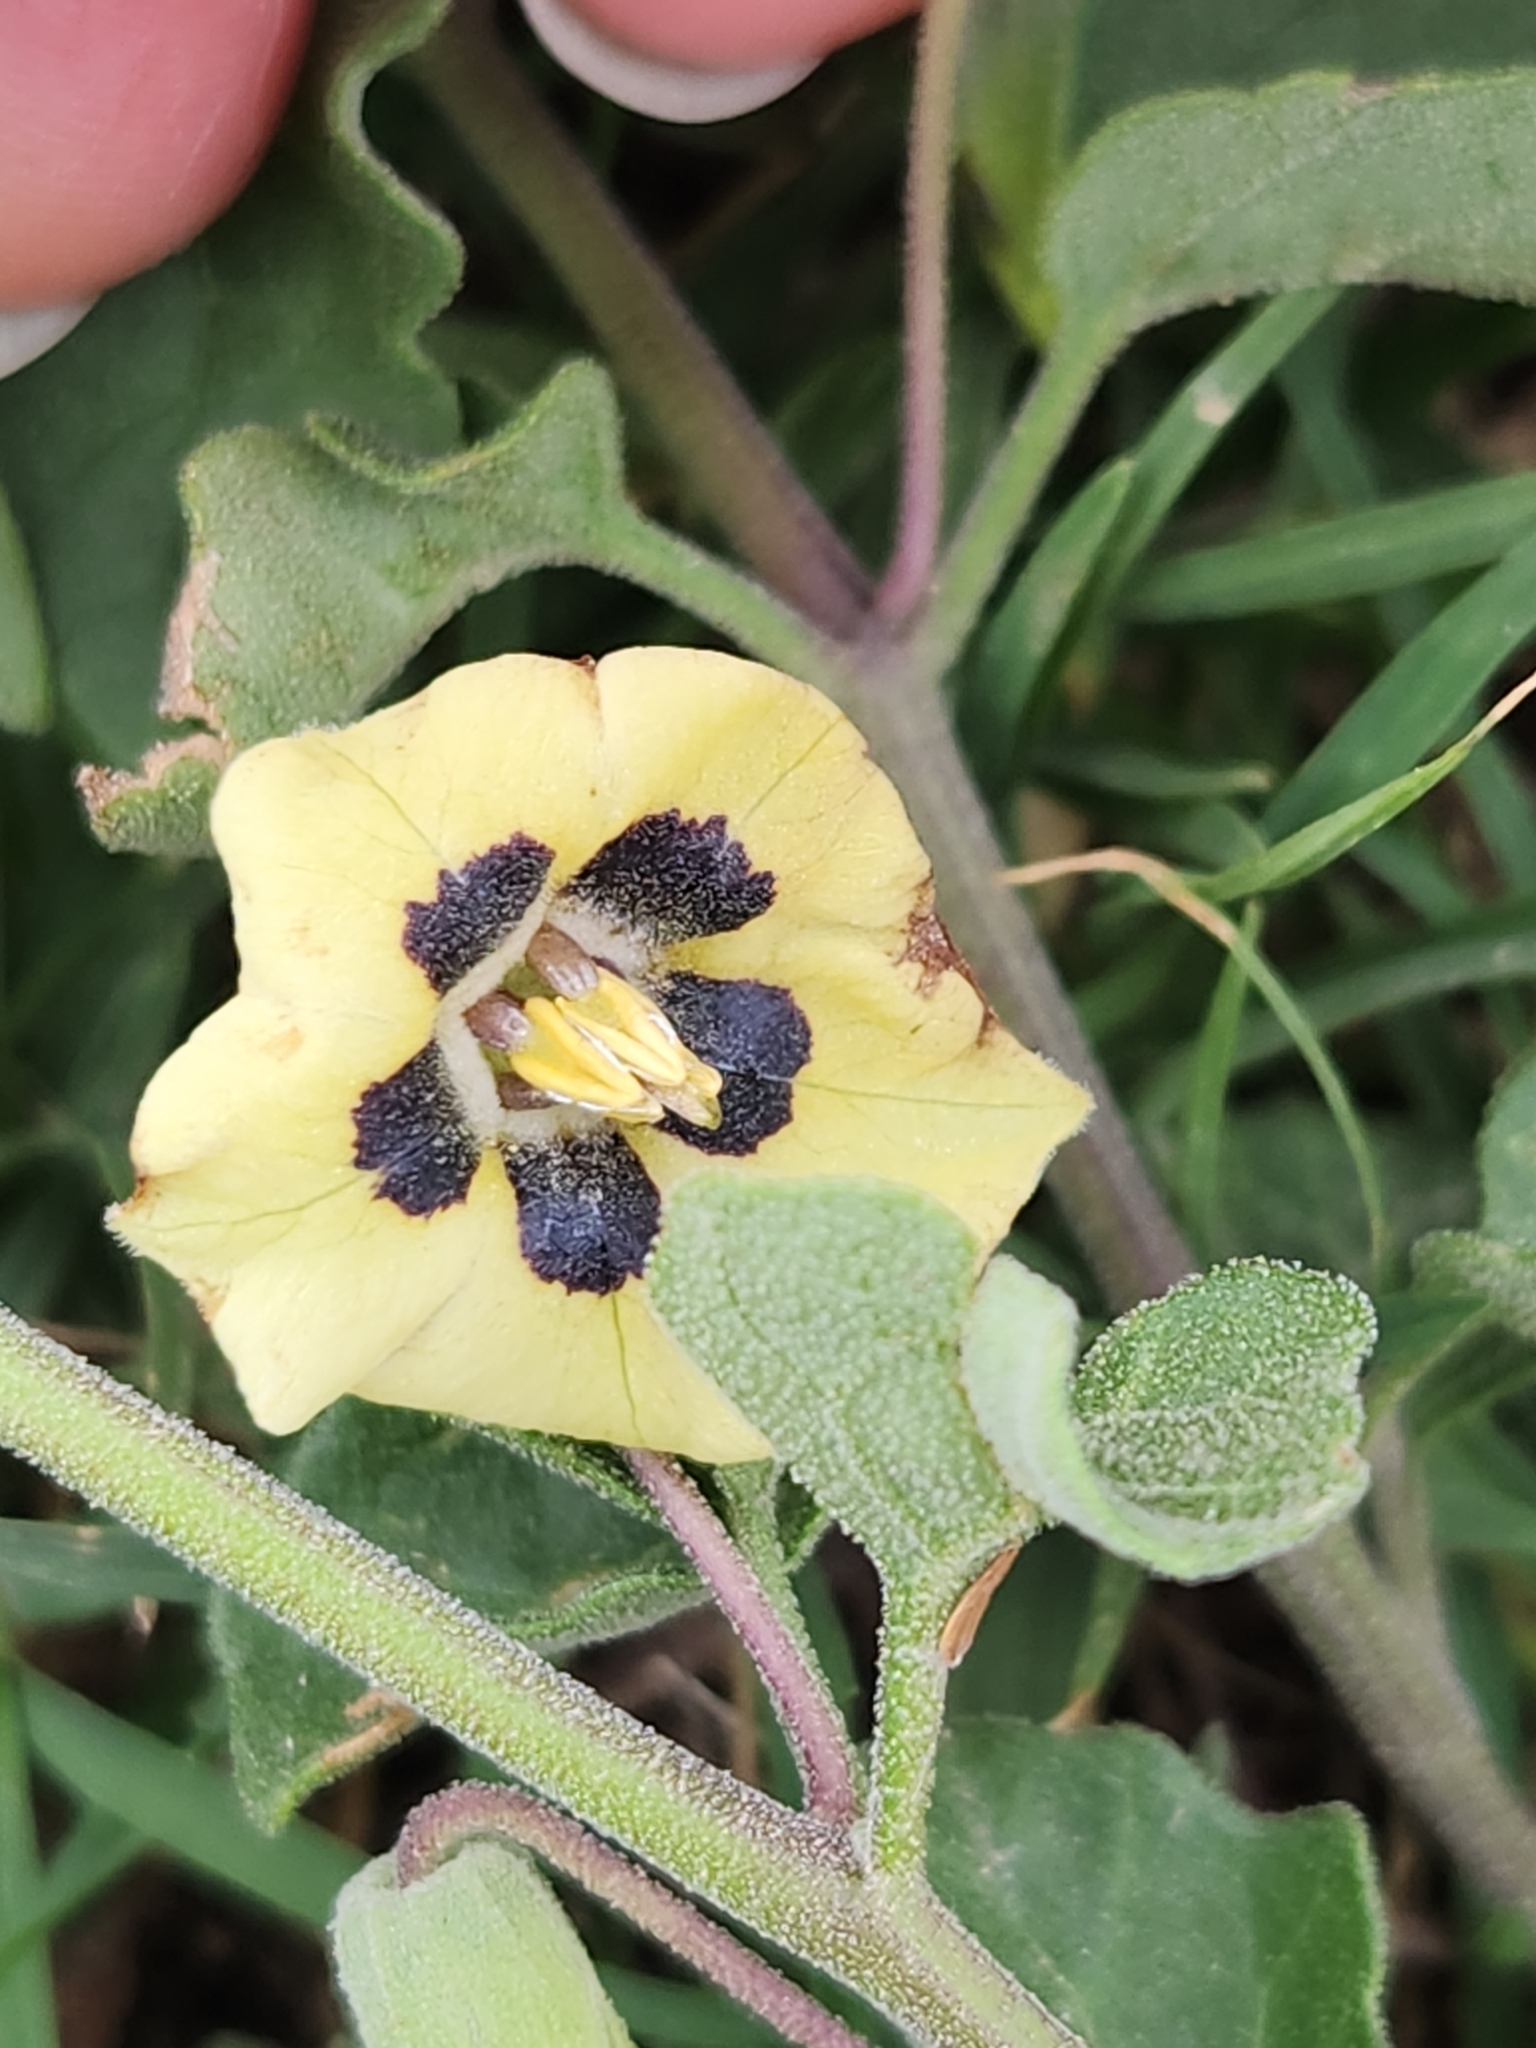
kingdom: Plantae
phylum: Tracheophyta
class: Magnoliopsida
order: Solanales
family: Solanaceae
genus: Physalis
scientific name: Physalis cinerascens
